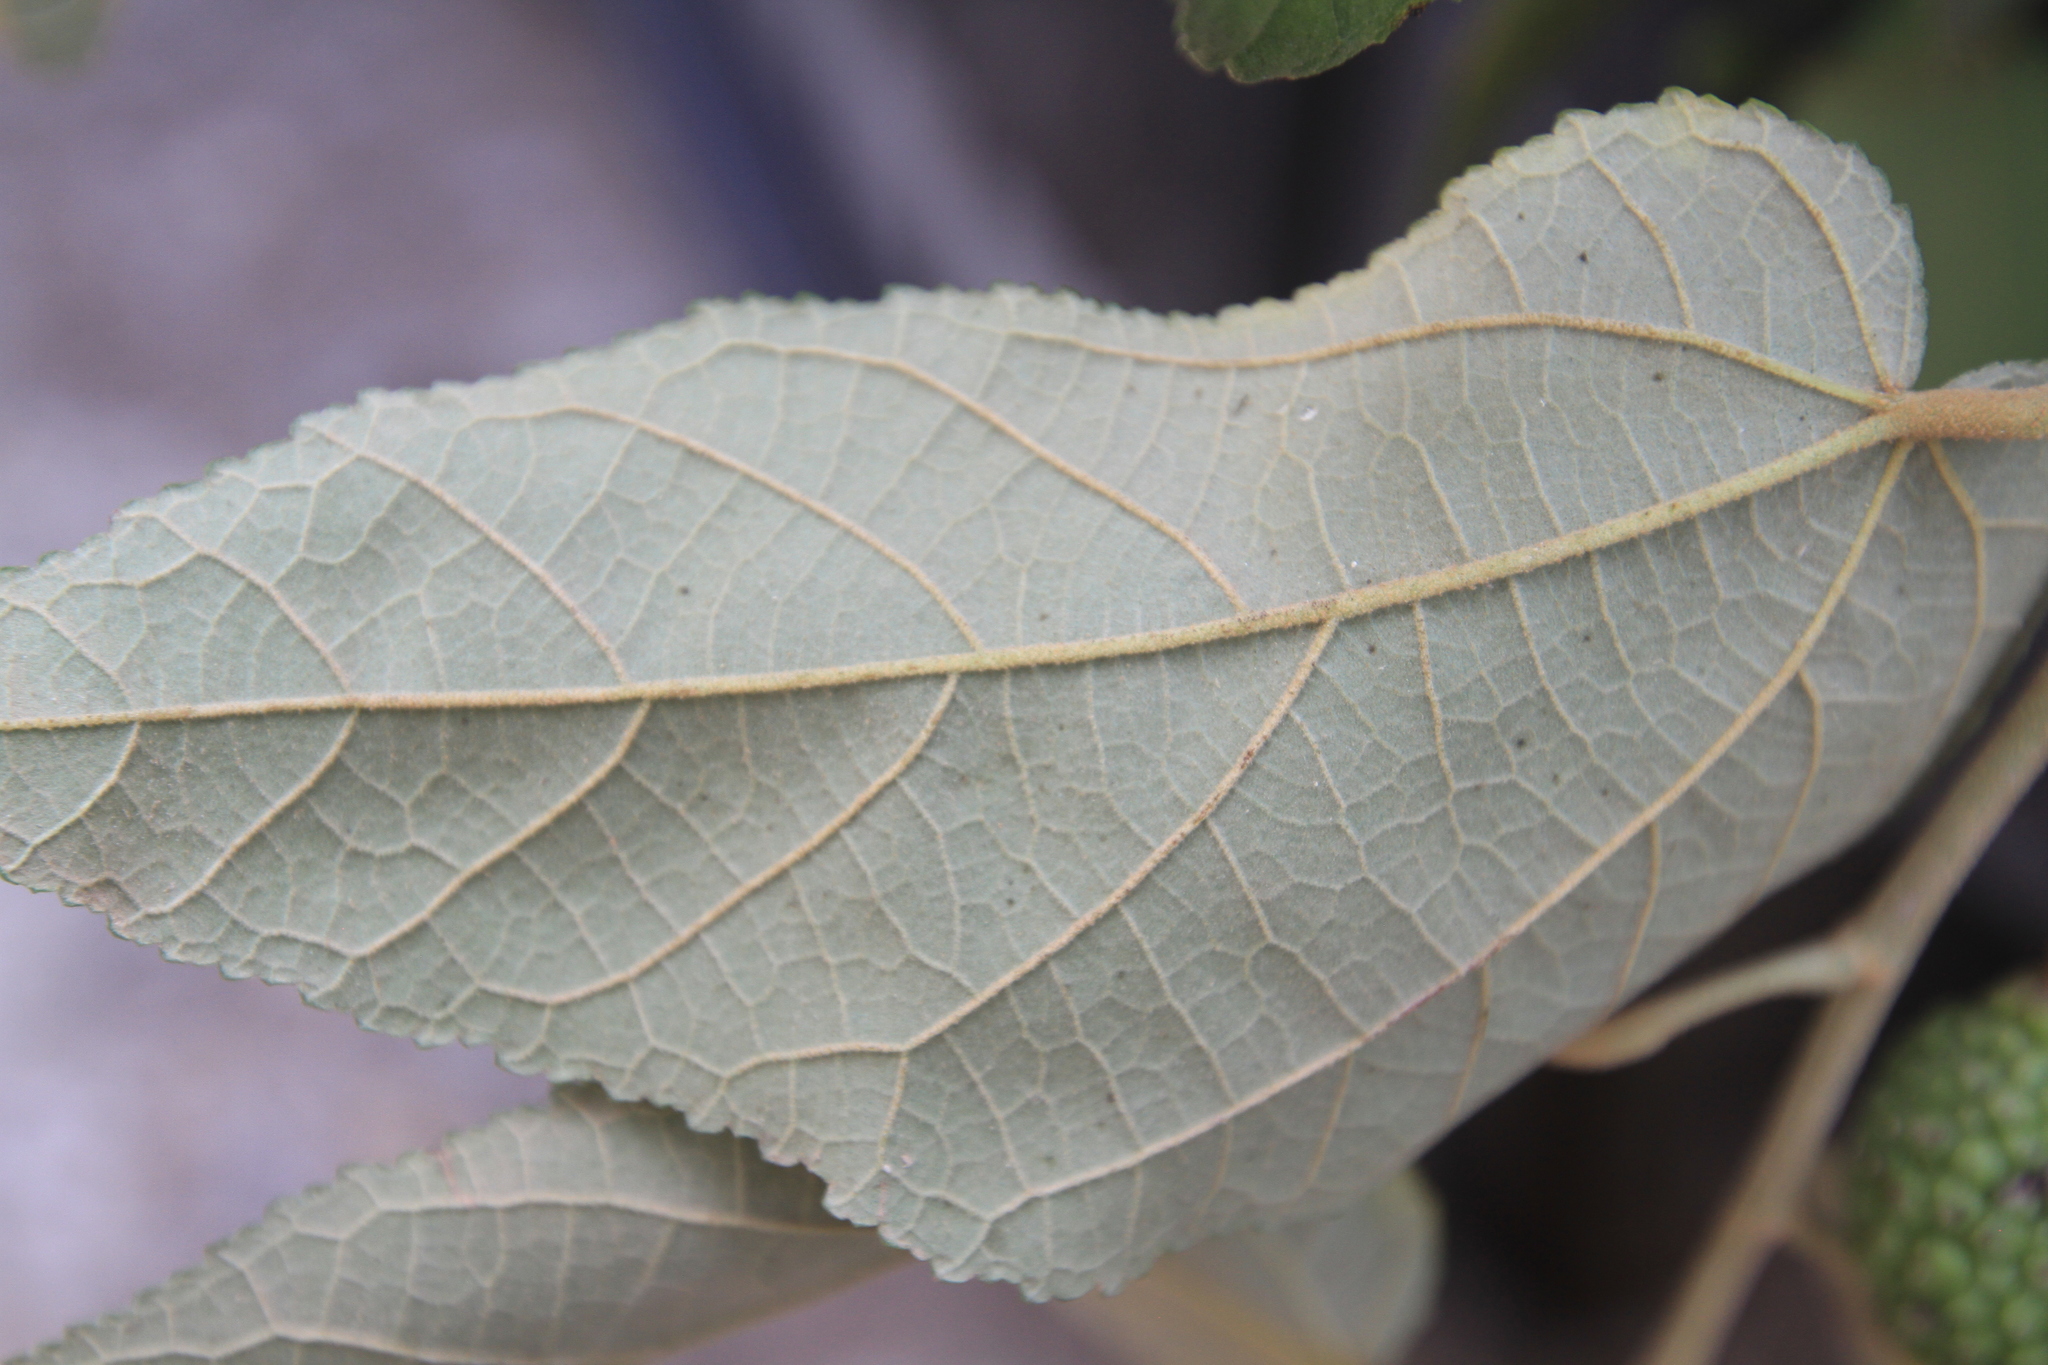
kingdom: Plantae
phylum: Tracheophyta
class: Magnoliopsida
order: Malvales
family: Malvaceae
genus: Guazuma
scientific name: Guazuma ulmifolia
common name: Bastard-cedar
